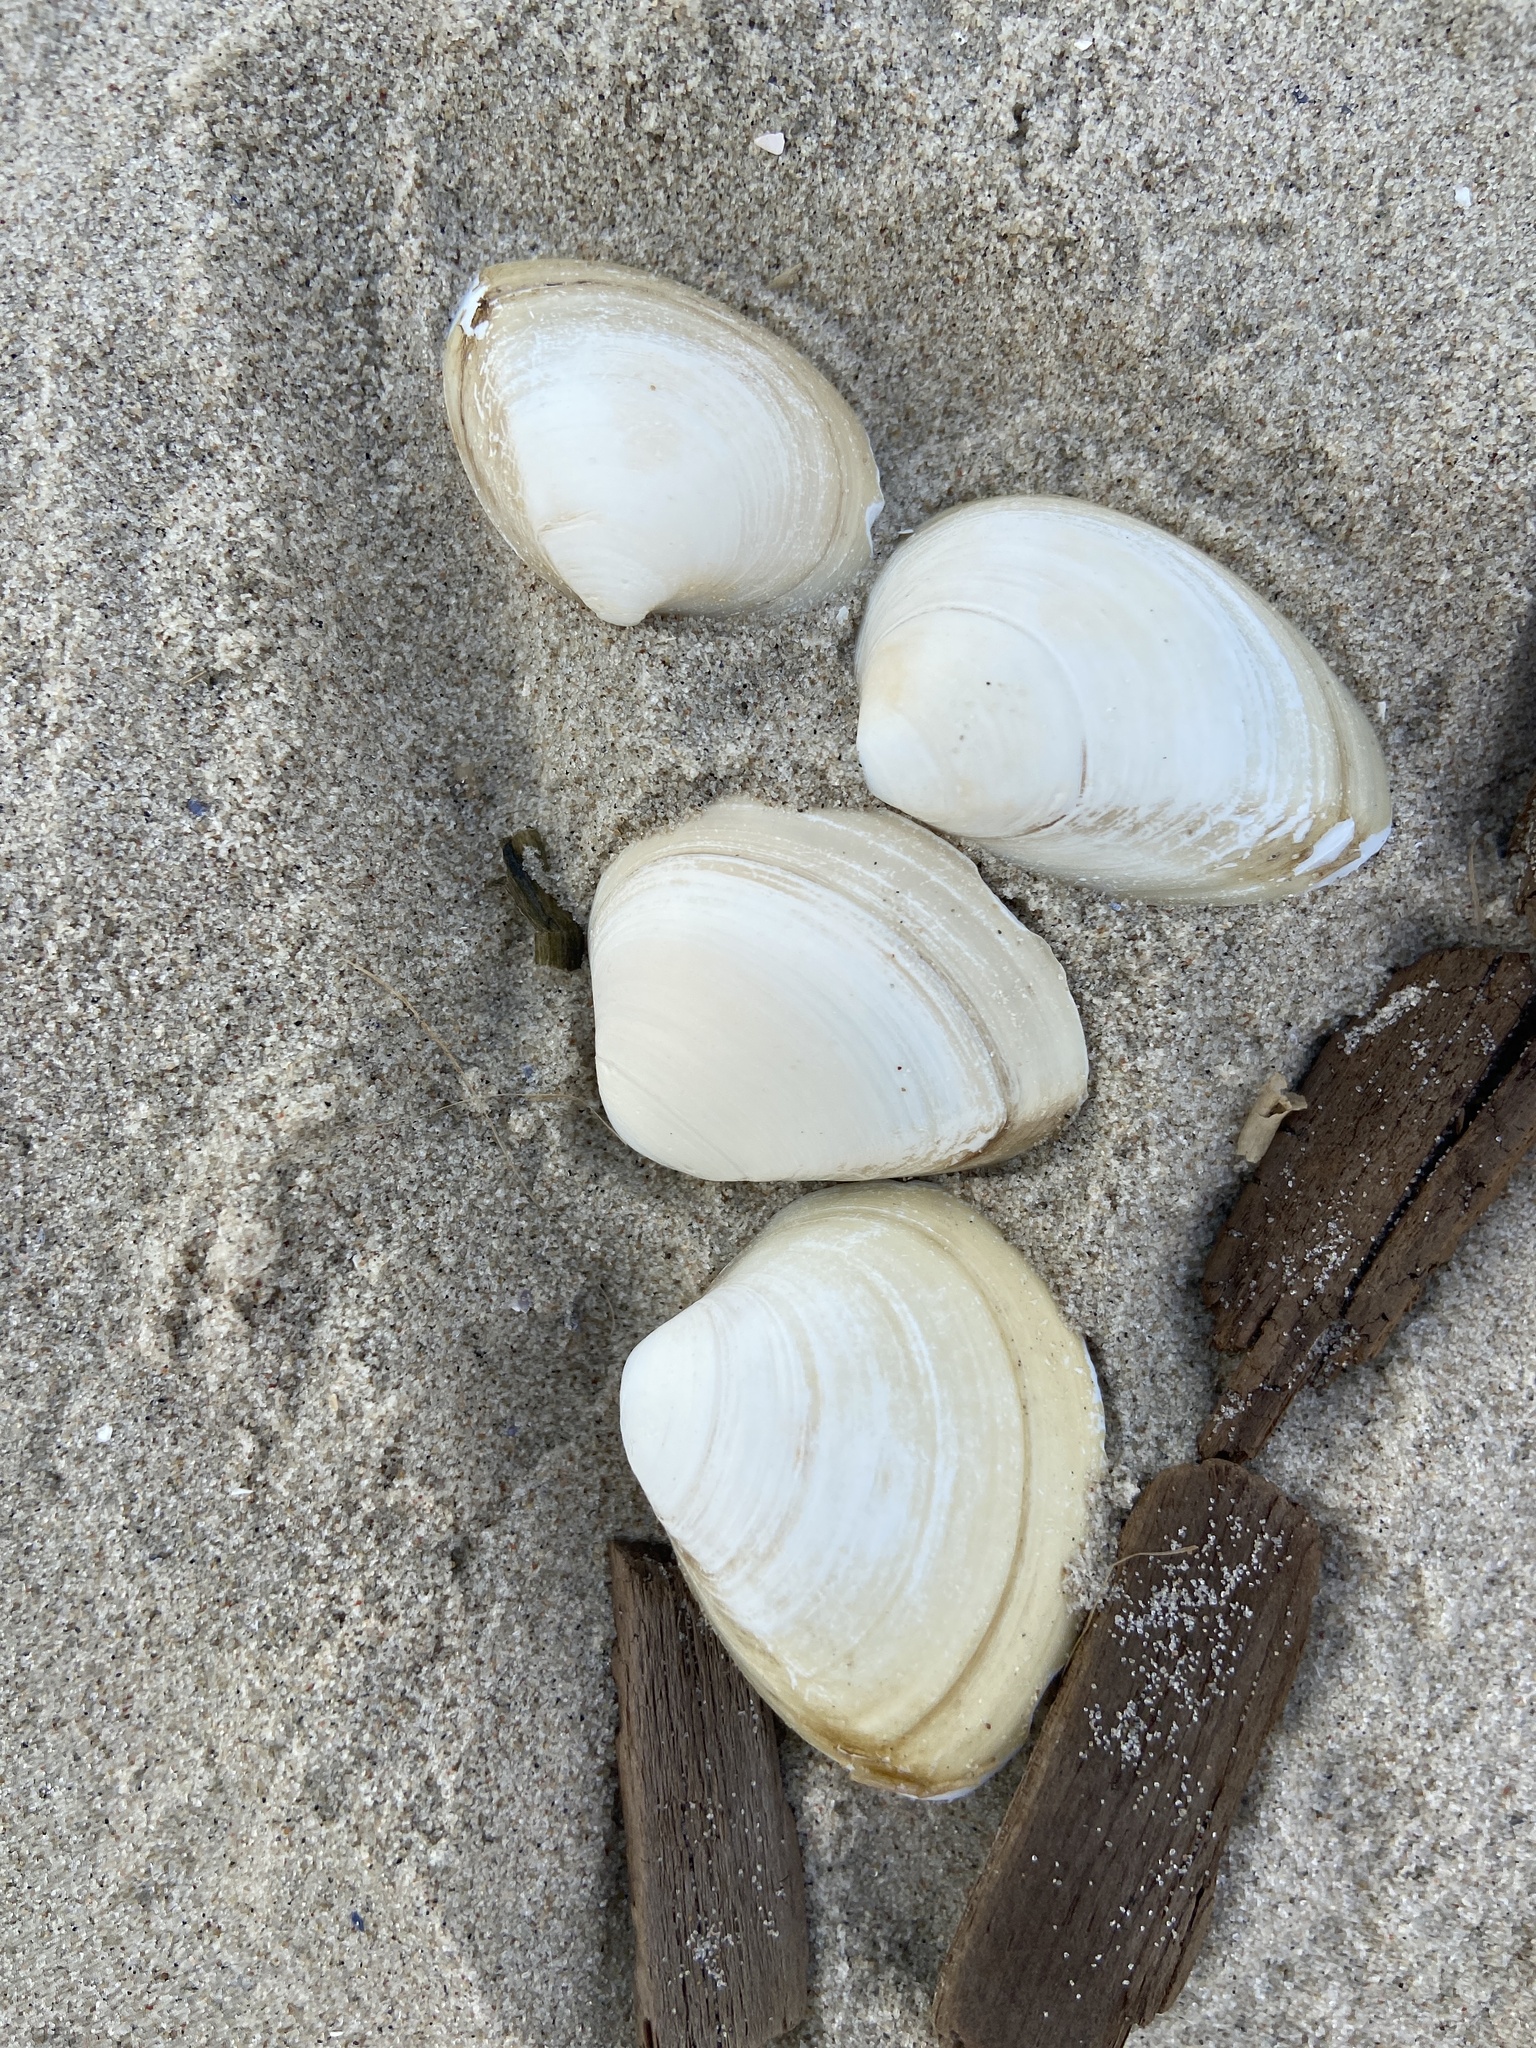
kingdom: Animalia
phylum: Mollusca
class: Bivalvia
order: Venerida
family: Mactridae
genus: Rangia
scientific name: Rangia cuneata
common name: Atlantic rangia
